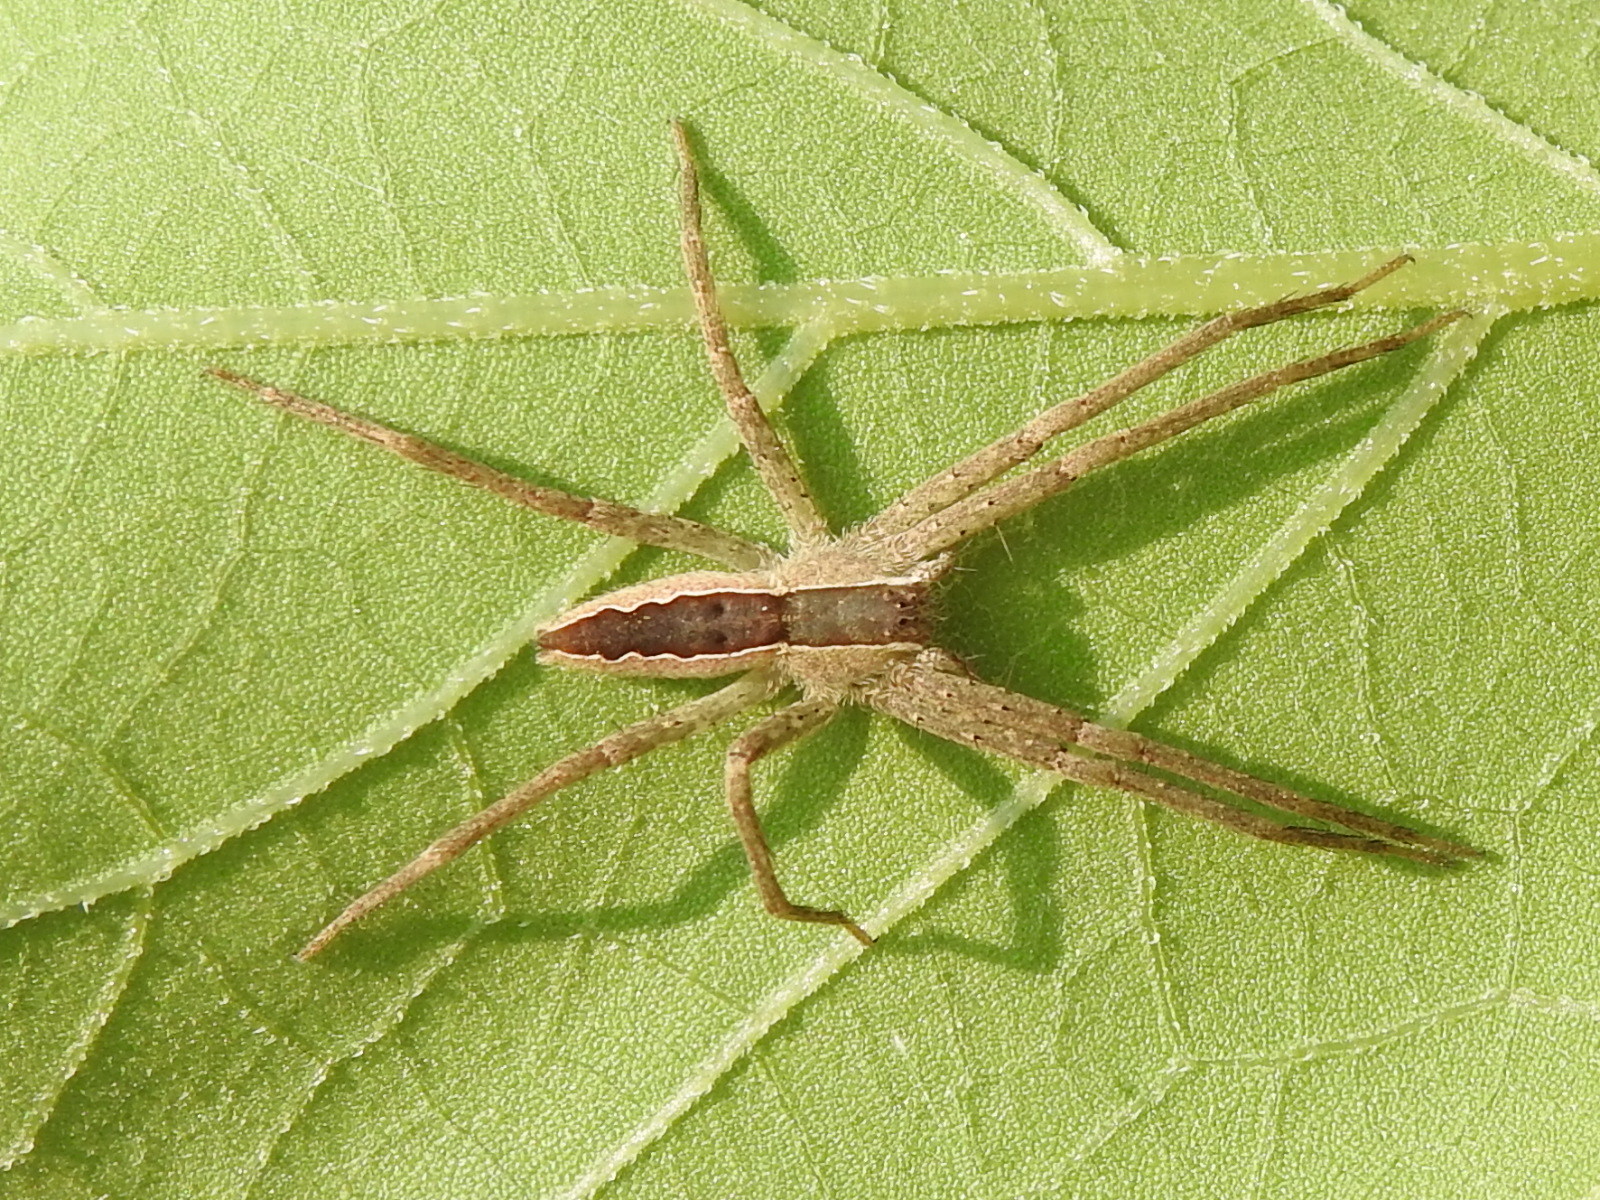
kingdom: Animalia
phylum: Arthropoda
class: Arachnida
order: Araneae
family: Pisauridae
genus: Pisaurina
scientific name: Pisaurina mira
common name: American nursery web spider
